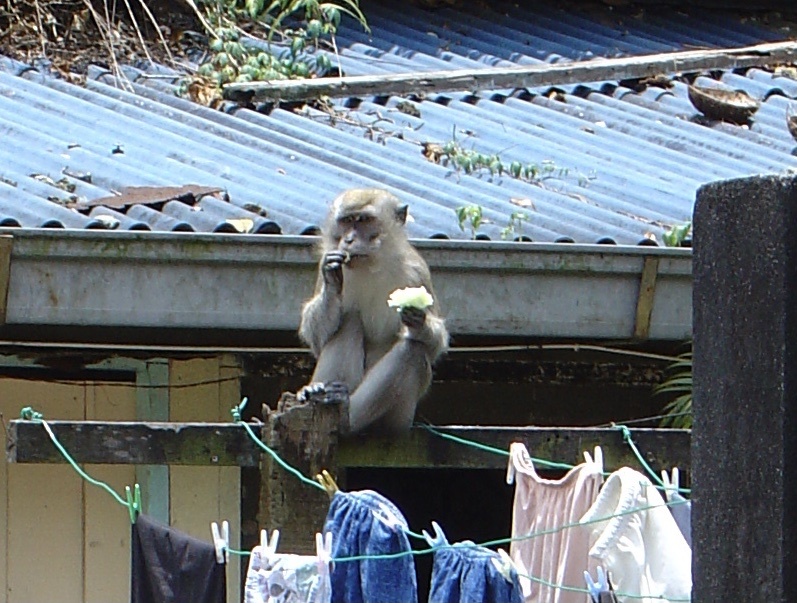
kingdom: Animalia
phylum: Chordata
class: Mammalia
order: Primates
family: Cercopithecidae
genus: Macaca
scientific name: Macaca fascicularis
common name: Crab-eating macaque
